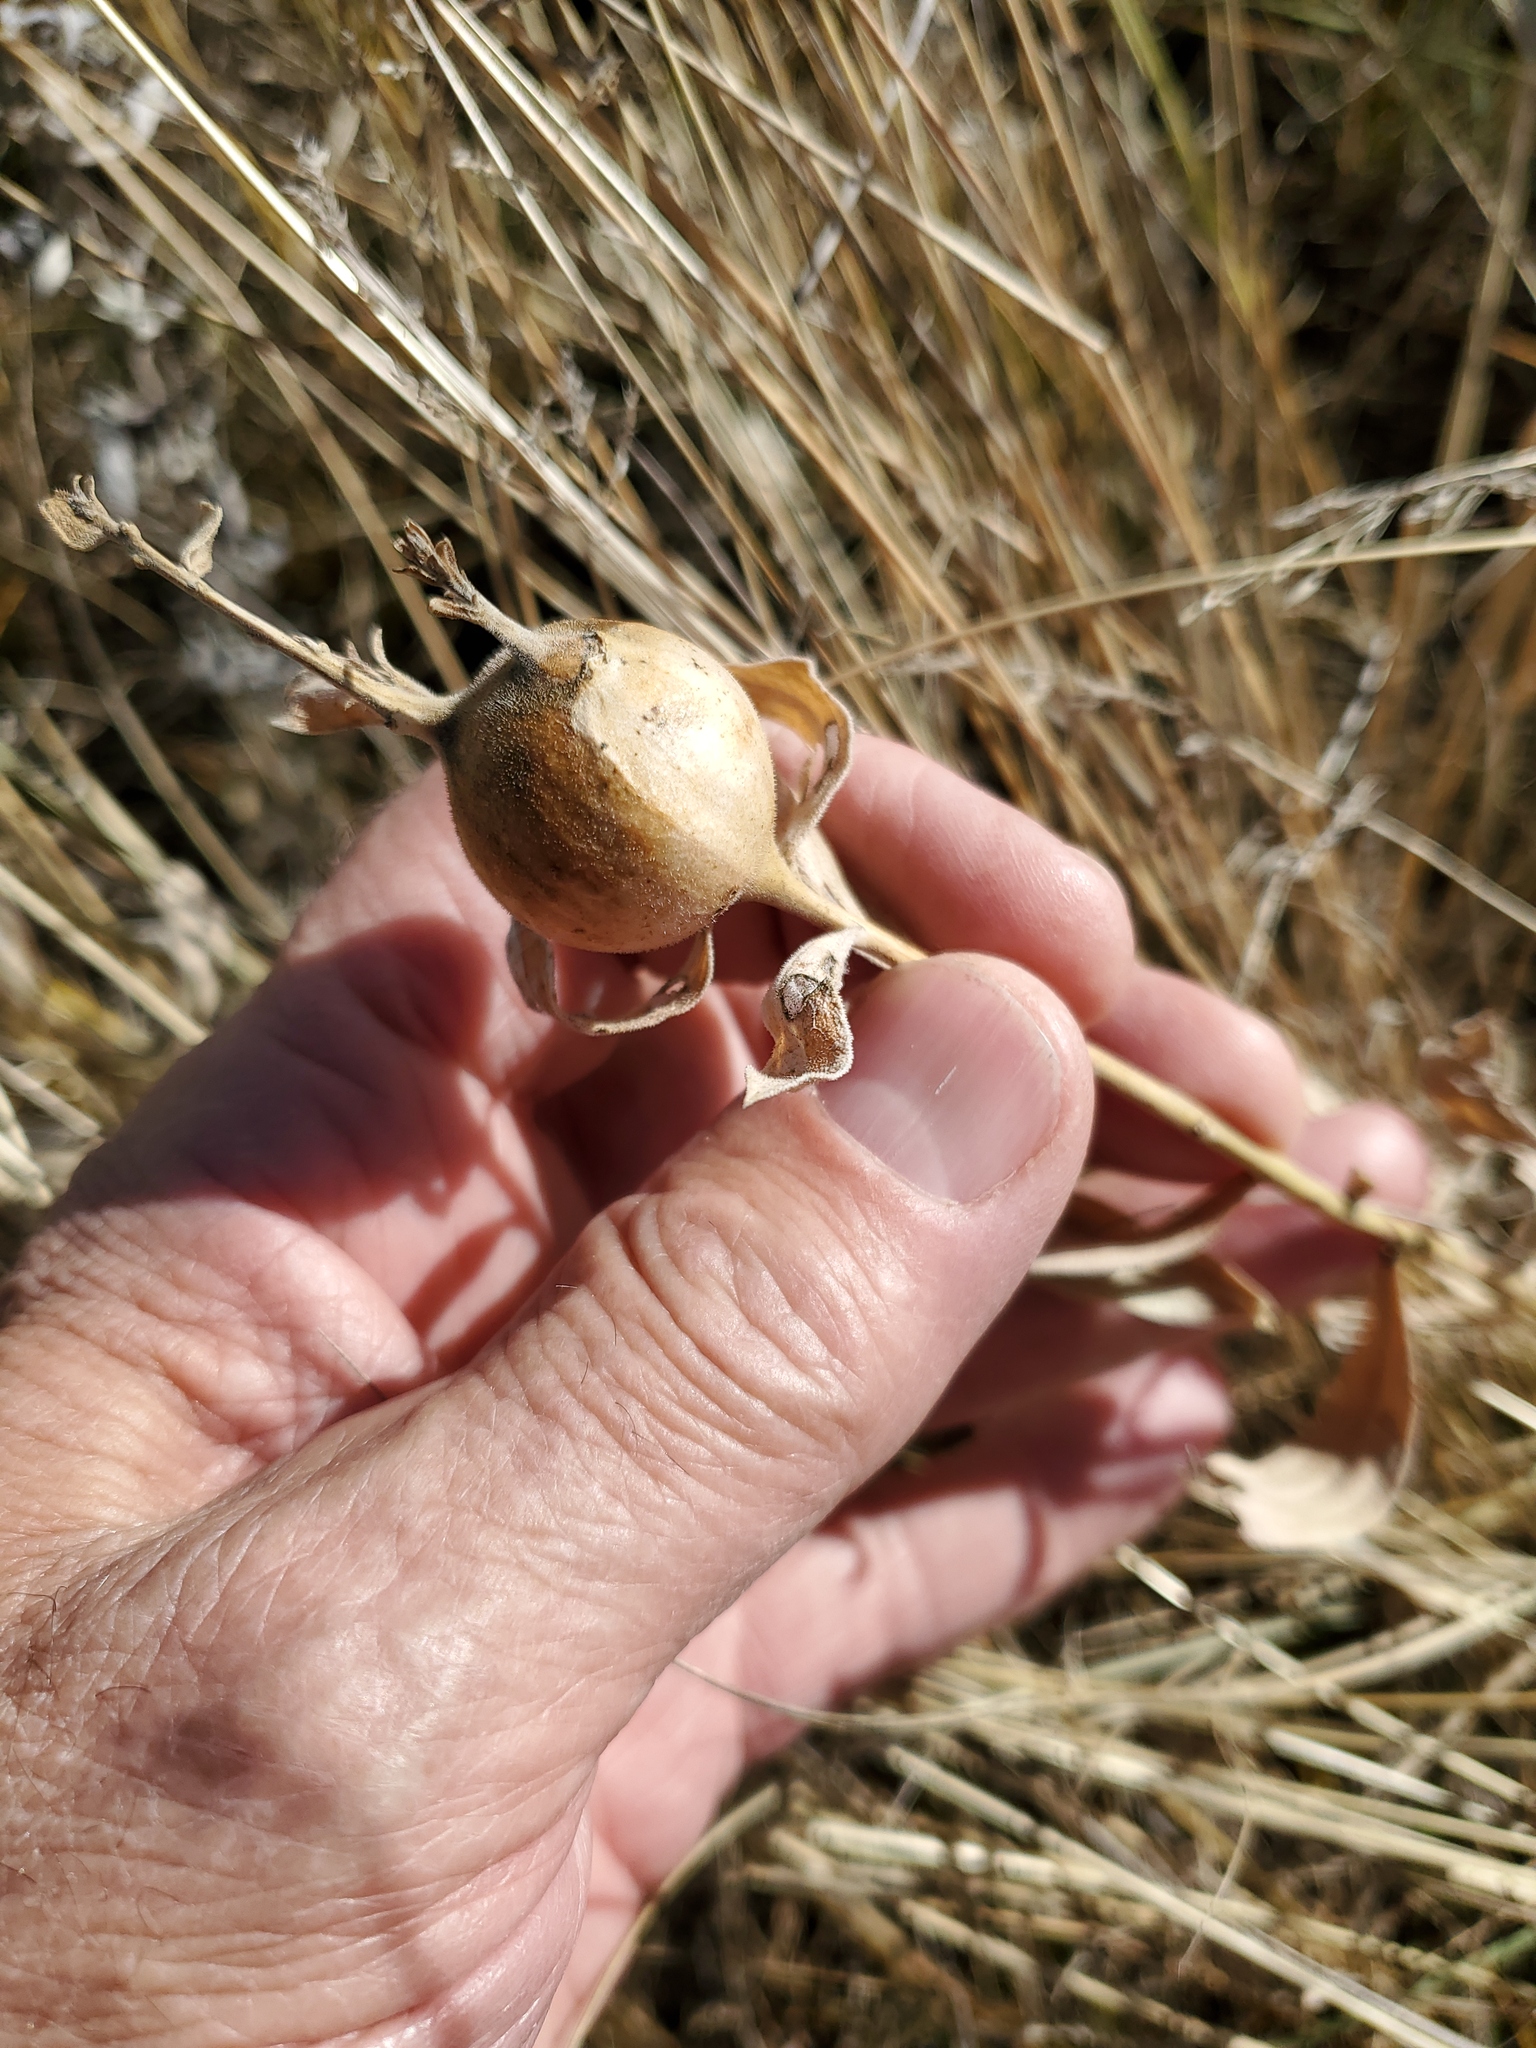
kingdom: Animalia
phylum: Arthropoda
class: Insecta
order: Diptera
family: Tephritidae
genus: Eurosta
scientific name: Eurosta solidaginis
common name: Goldenrod gall fly
